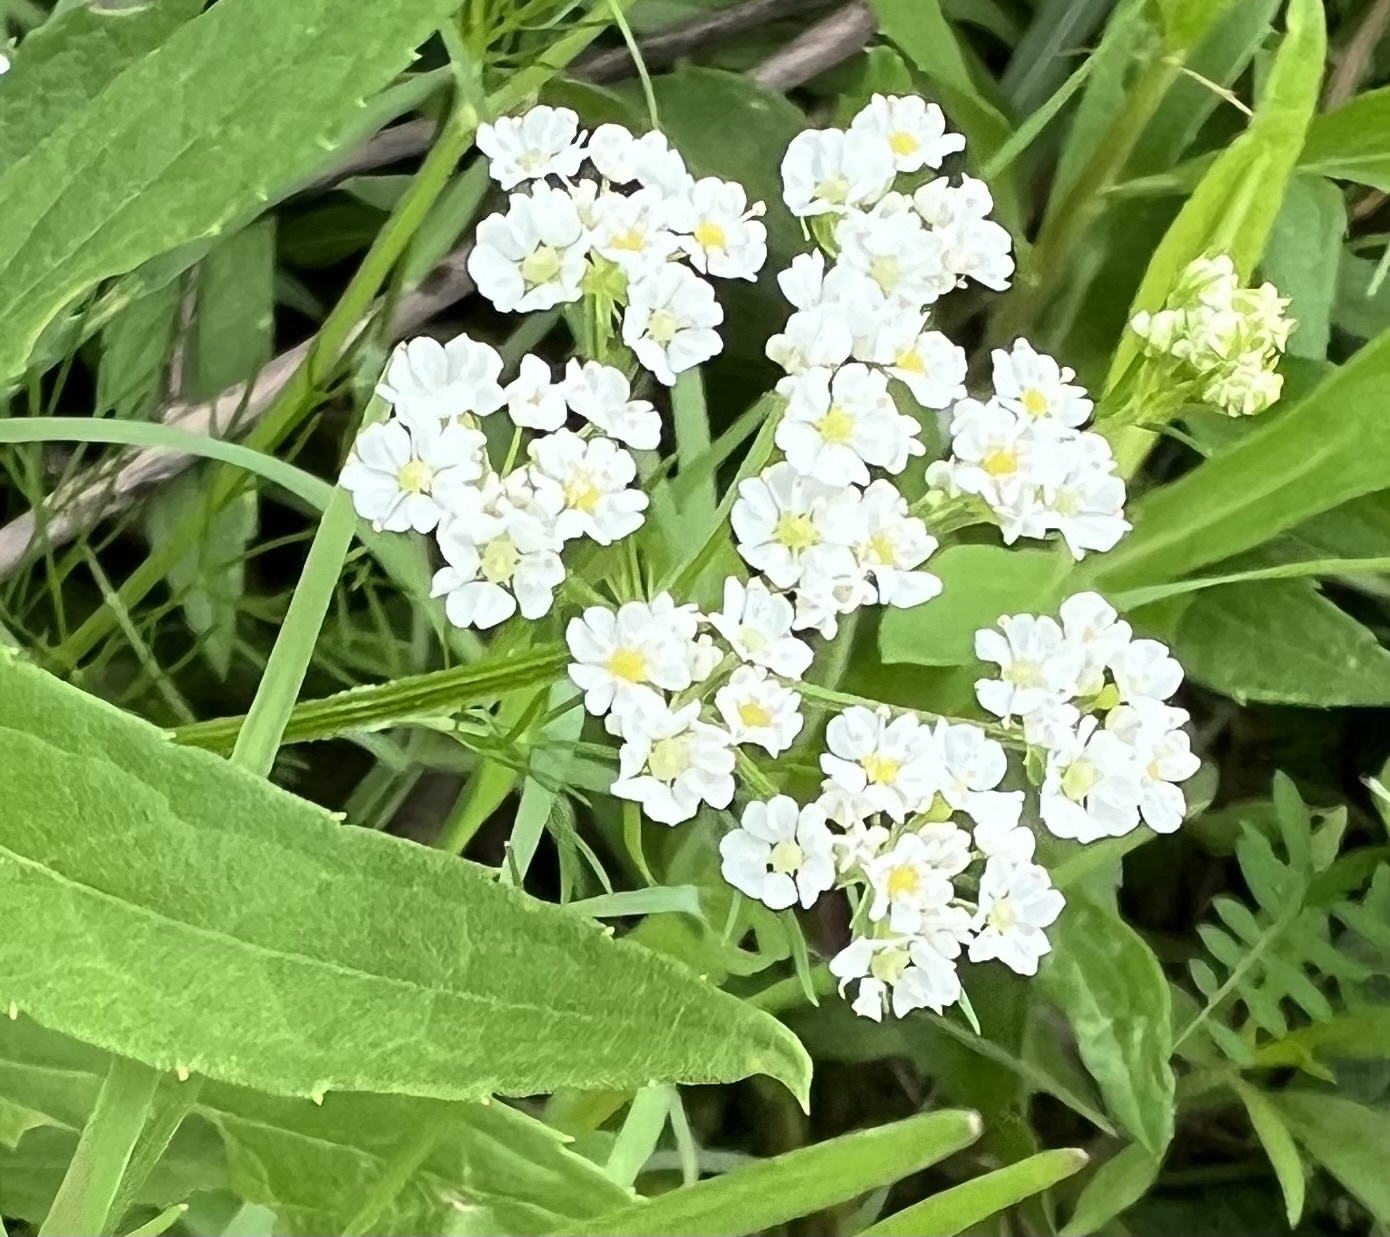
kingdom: Plantae
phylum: Tracheophyta
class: Magnoliopsida
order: Apiales
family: Apiaceae
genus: Atrema
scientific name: Atrema americanum
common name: Prairie-bishop
